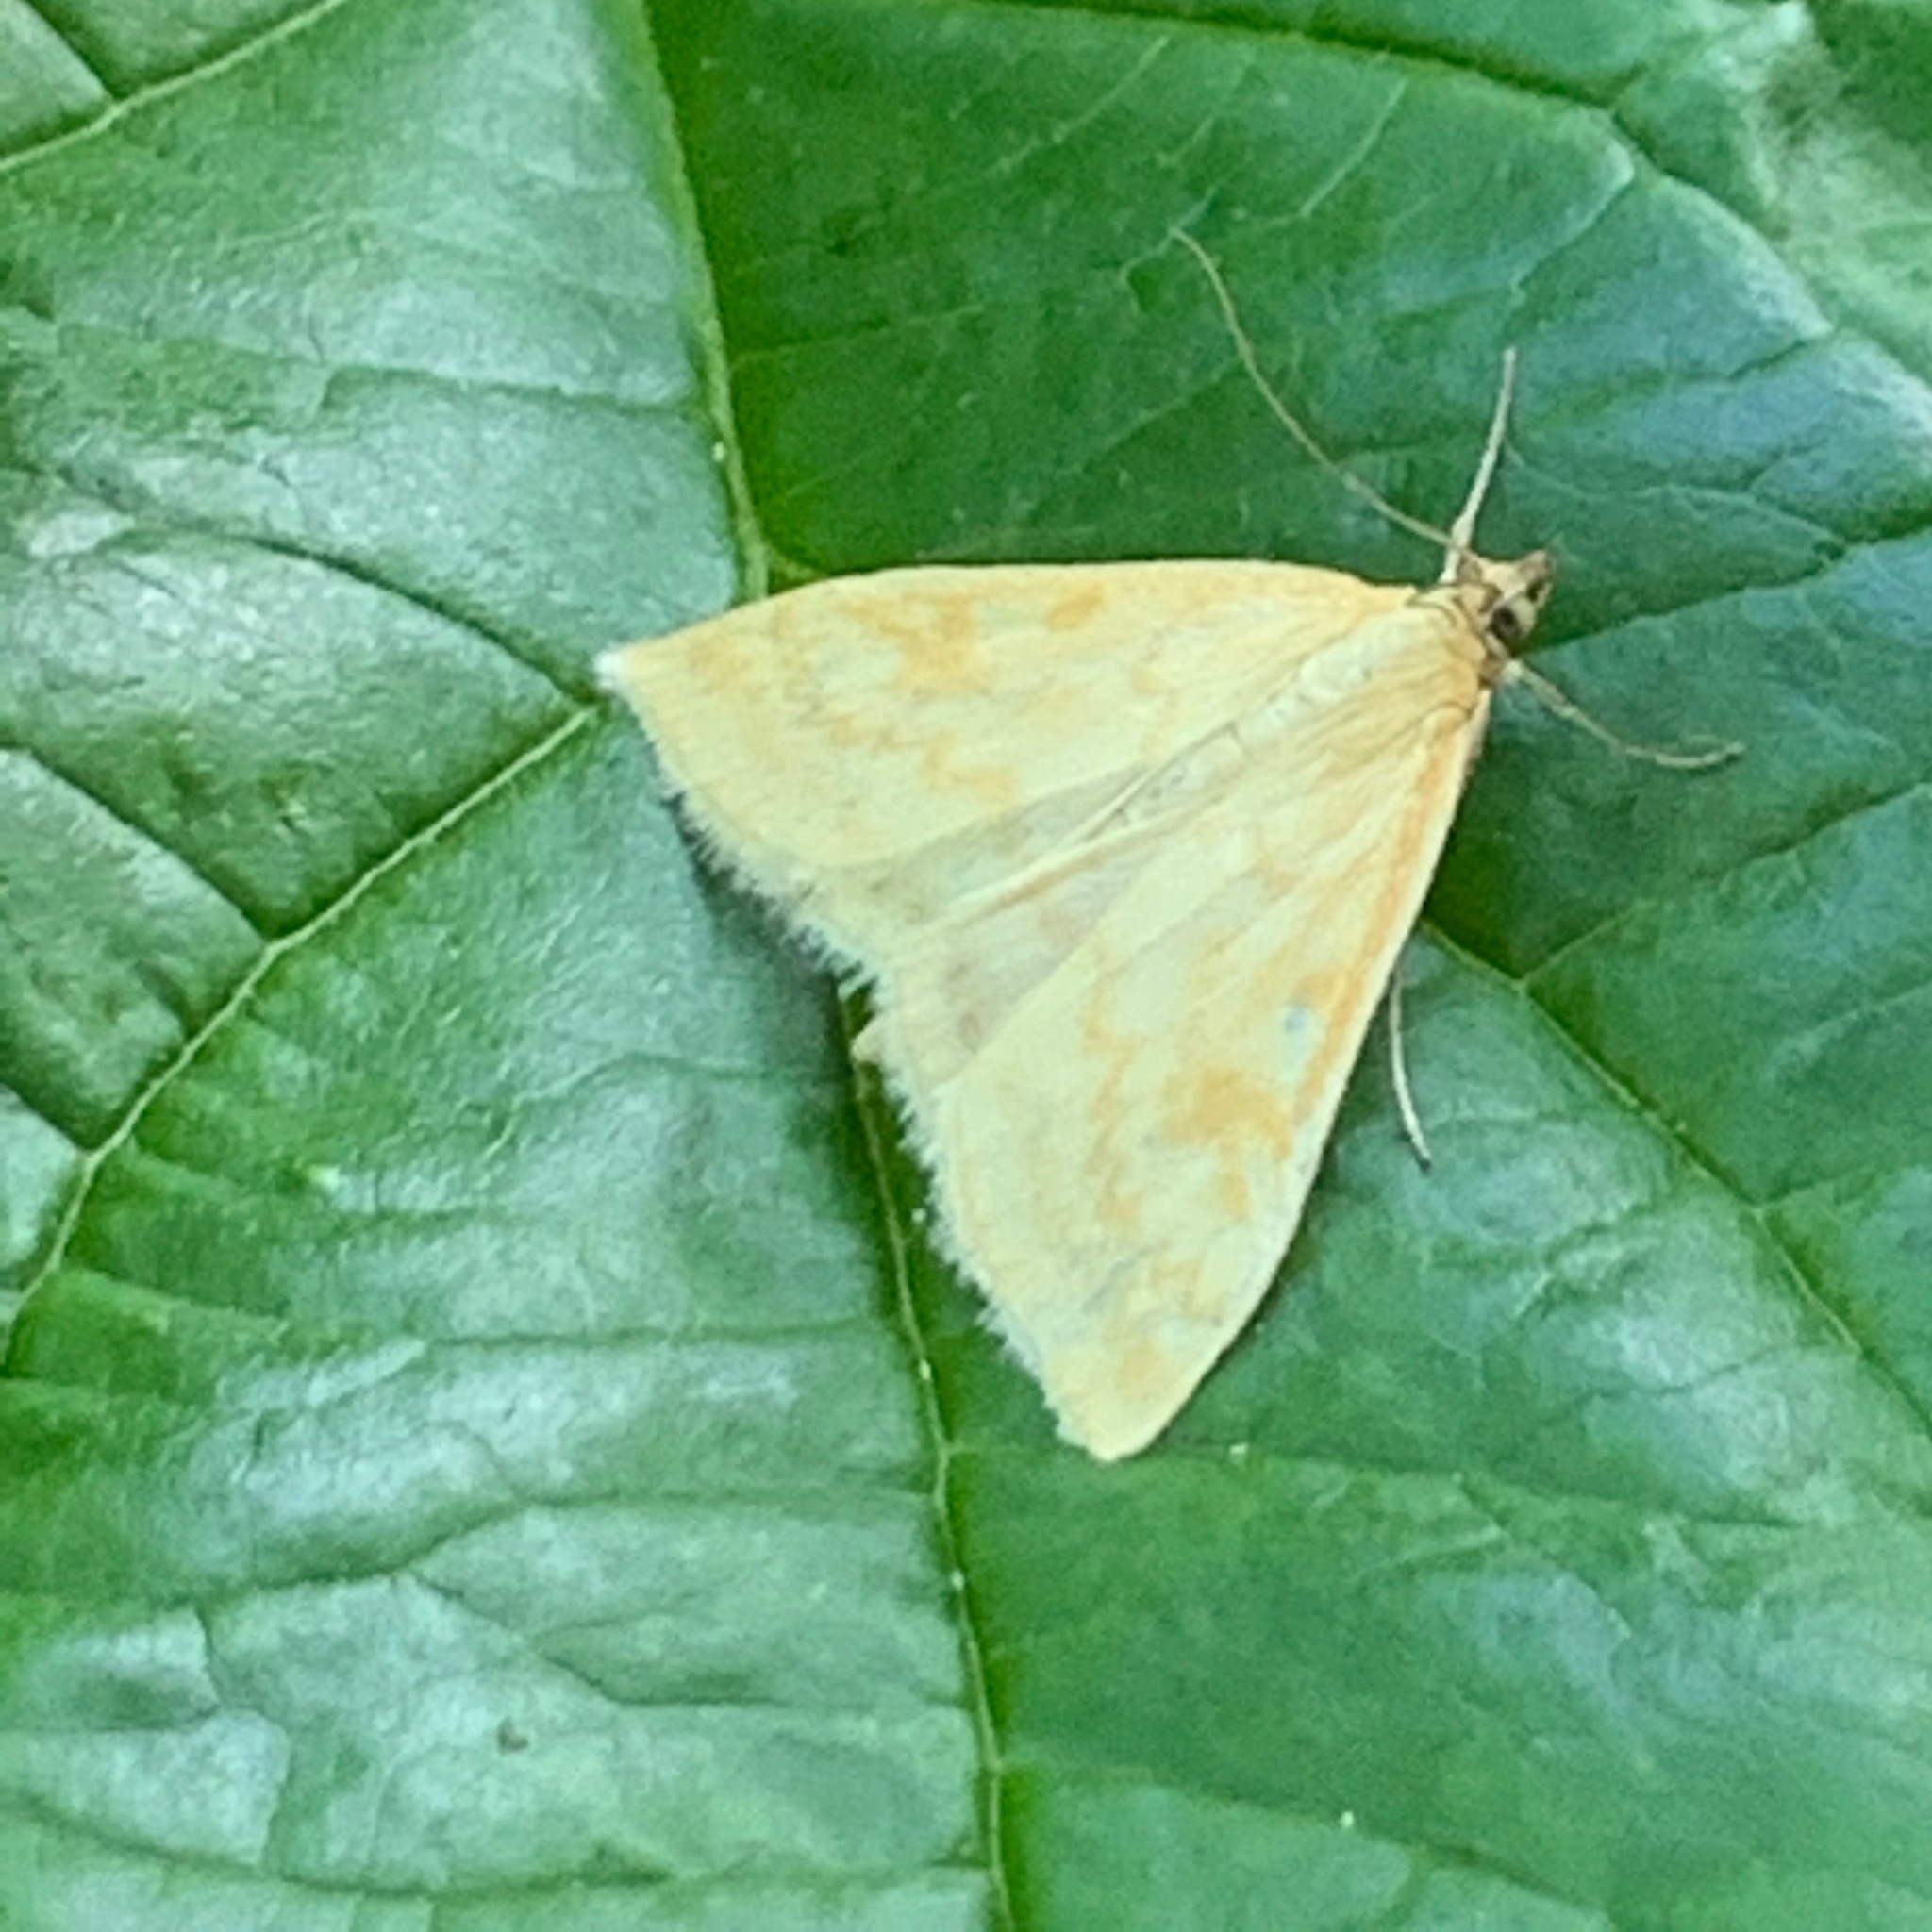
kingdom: Animalia
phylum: Arthropoda
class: Insecta
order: Lepidoptera
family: Crambidae
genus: Sitochroa
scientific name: Sitochroa verticalis
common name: Lesser pearl
